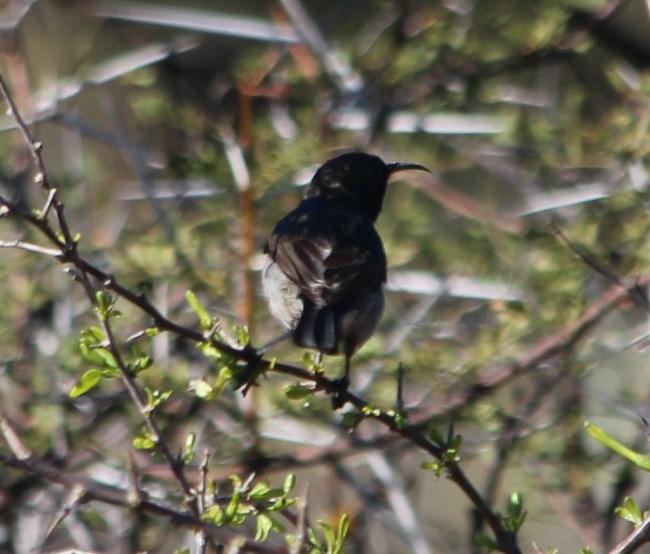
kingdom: Animalia
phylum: Chordata
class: Aves
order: Passeriformes
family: Nectariniidae
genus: Cinnyris
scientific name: Cinnyris chalybeus
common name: Southern double-collared sunbird
